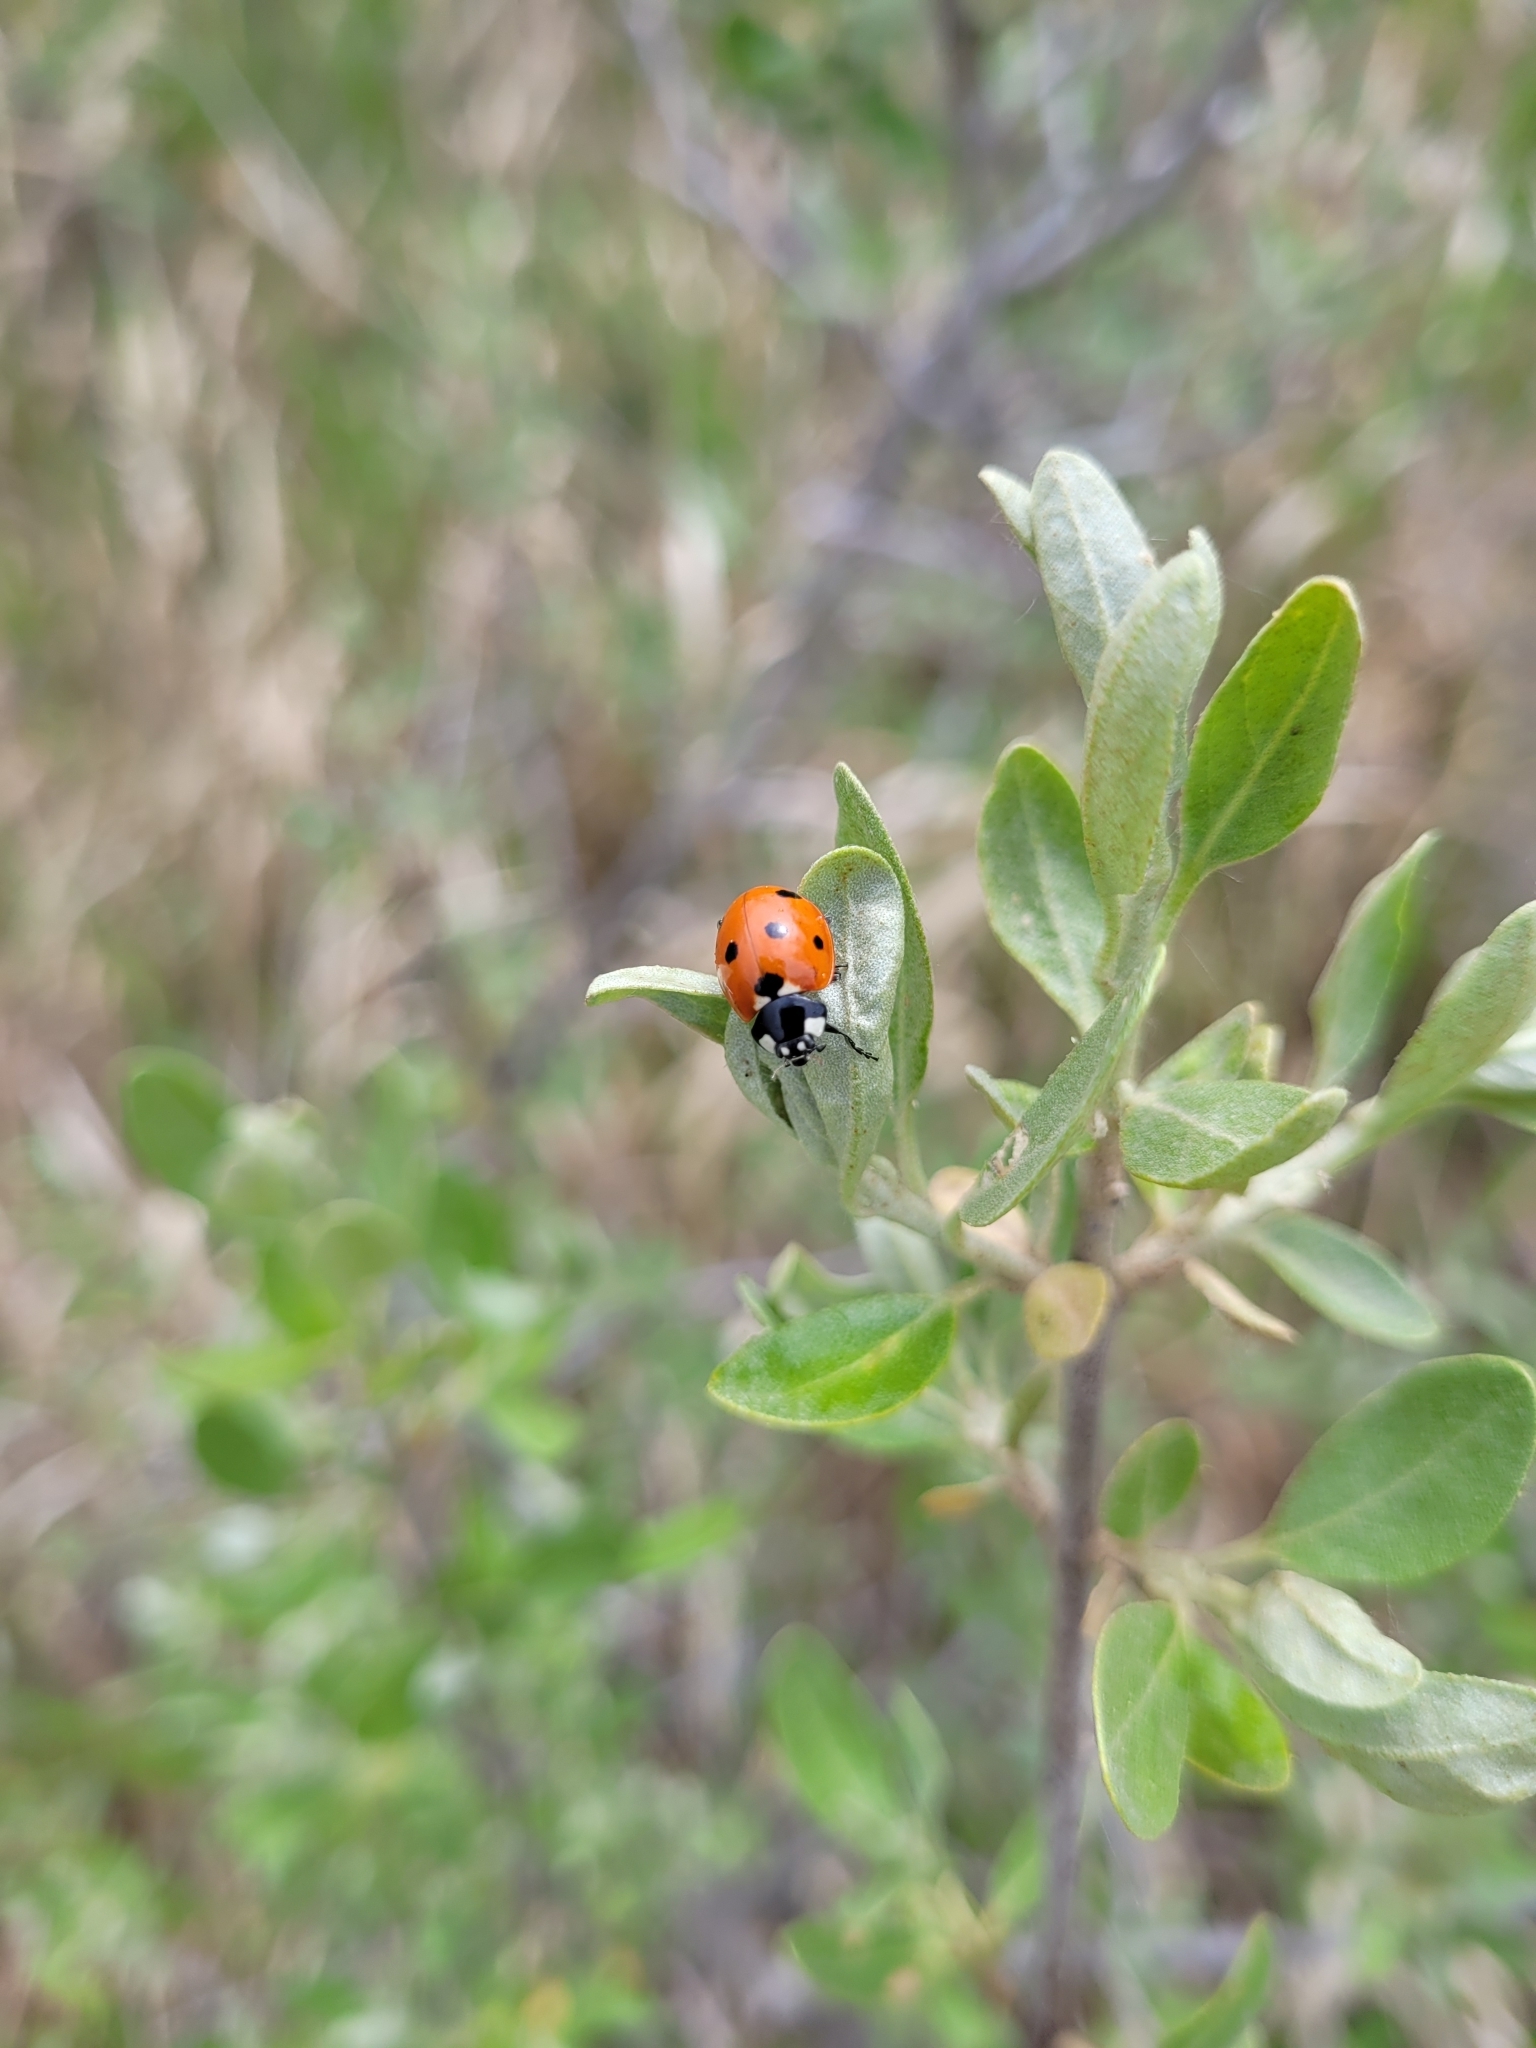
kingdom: Animalia
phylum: Arthropoda
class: Insecta
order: Coleoptera
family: Coccinellidae
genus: Coccinella
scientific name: Coccinella septempunctata
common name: Sevenspotted lady beetle
